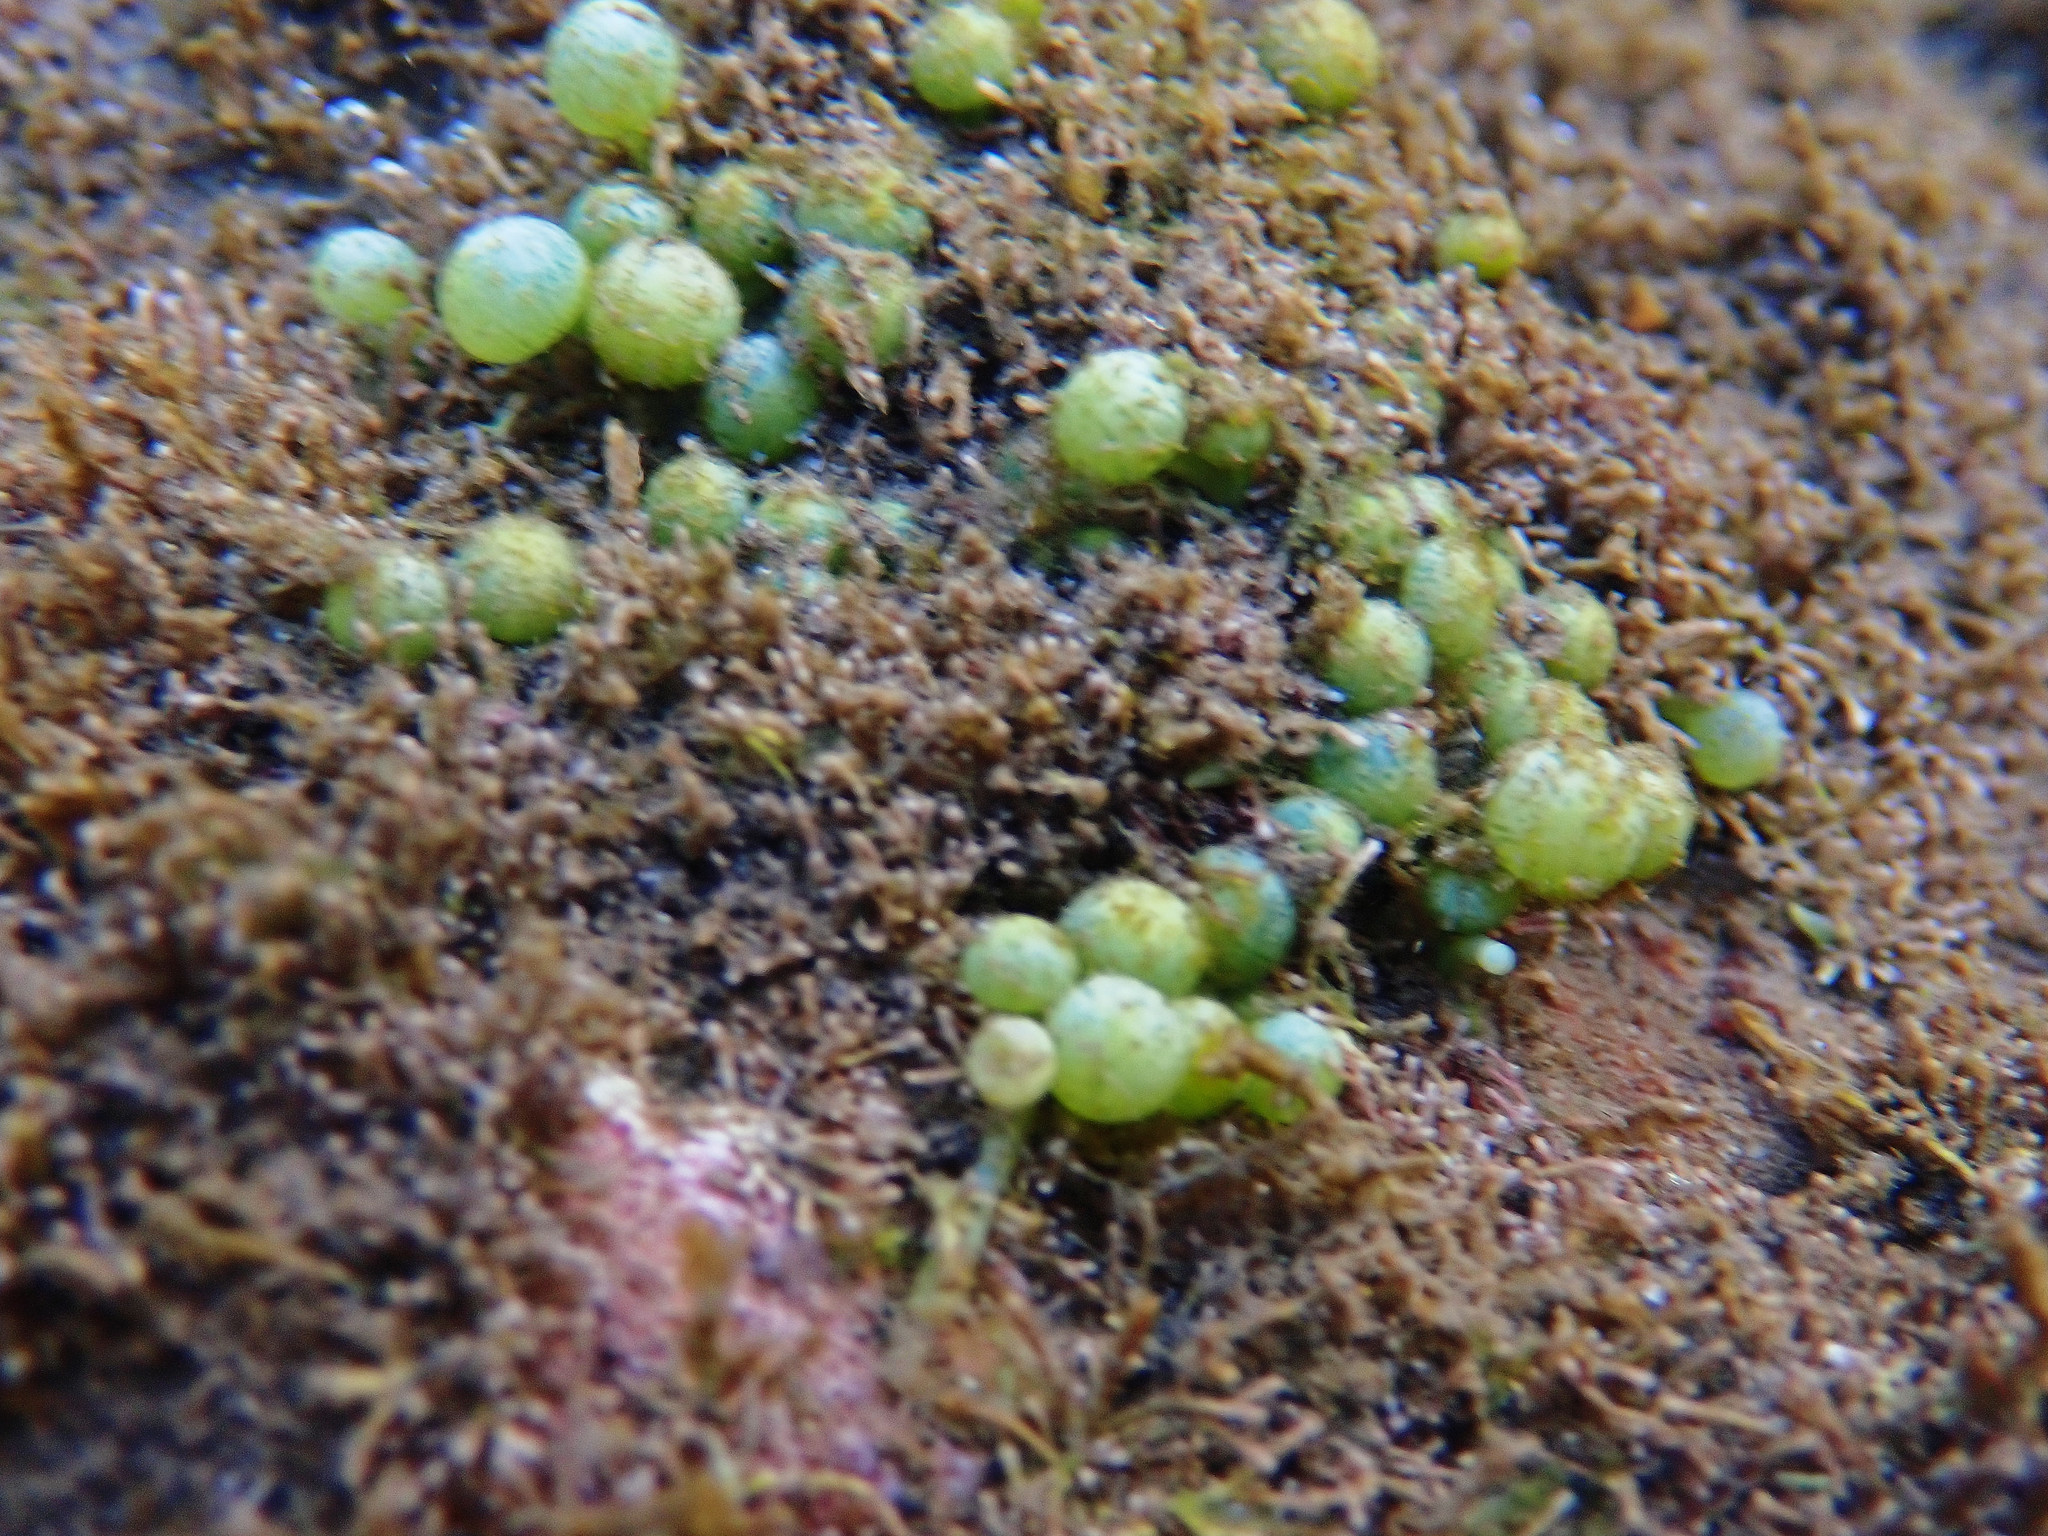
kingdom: Plantae
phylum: Chlorophyta
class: Ulvophyceae
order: Bryopsidales
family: Caulerpaceae
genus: Caulerpa
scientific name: Caulerpa racemosa
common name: Green grape algae
